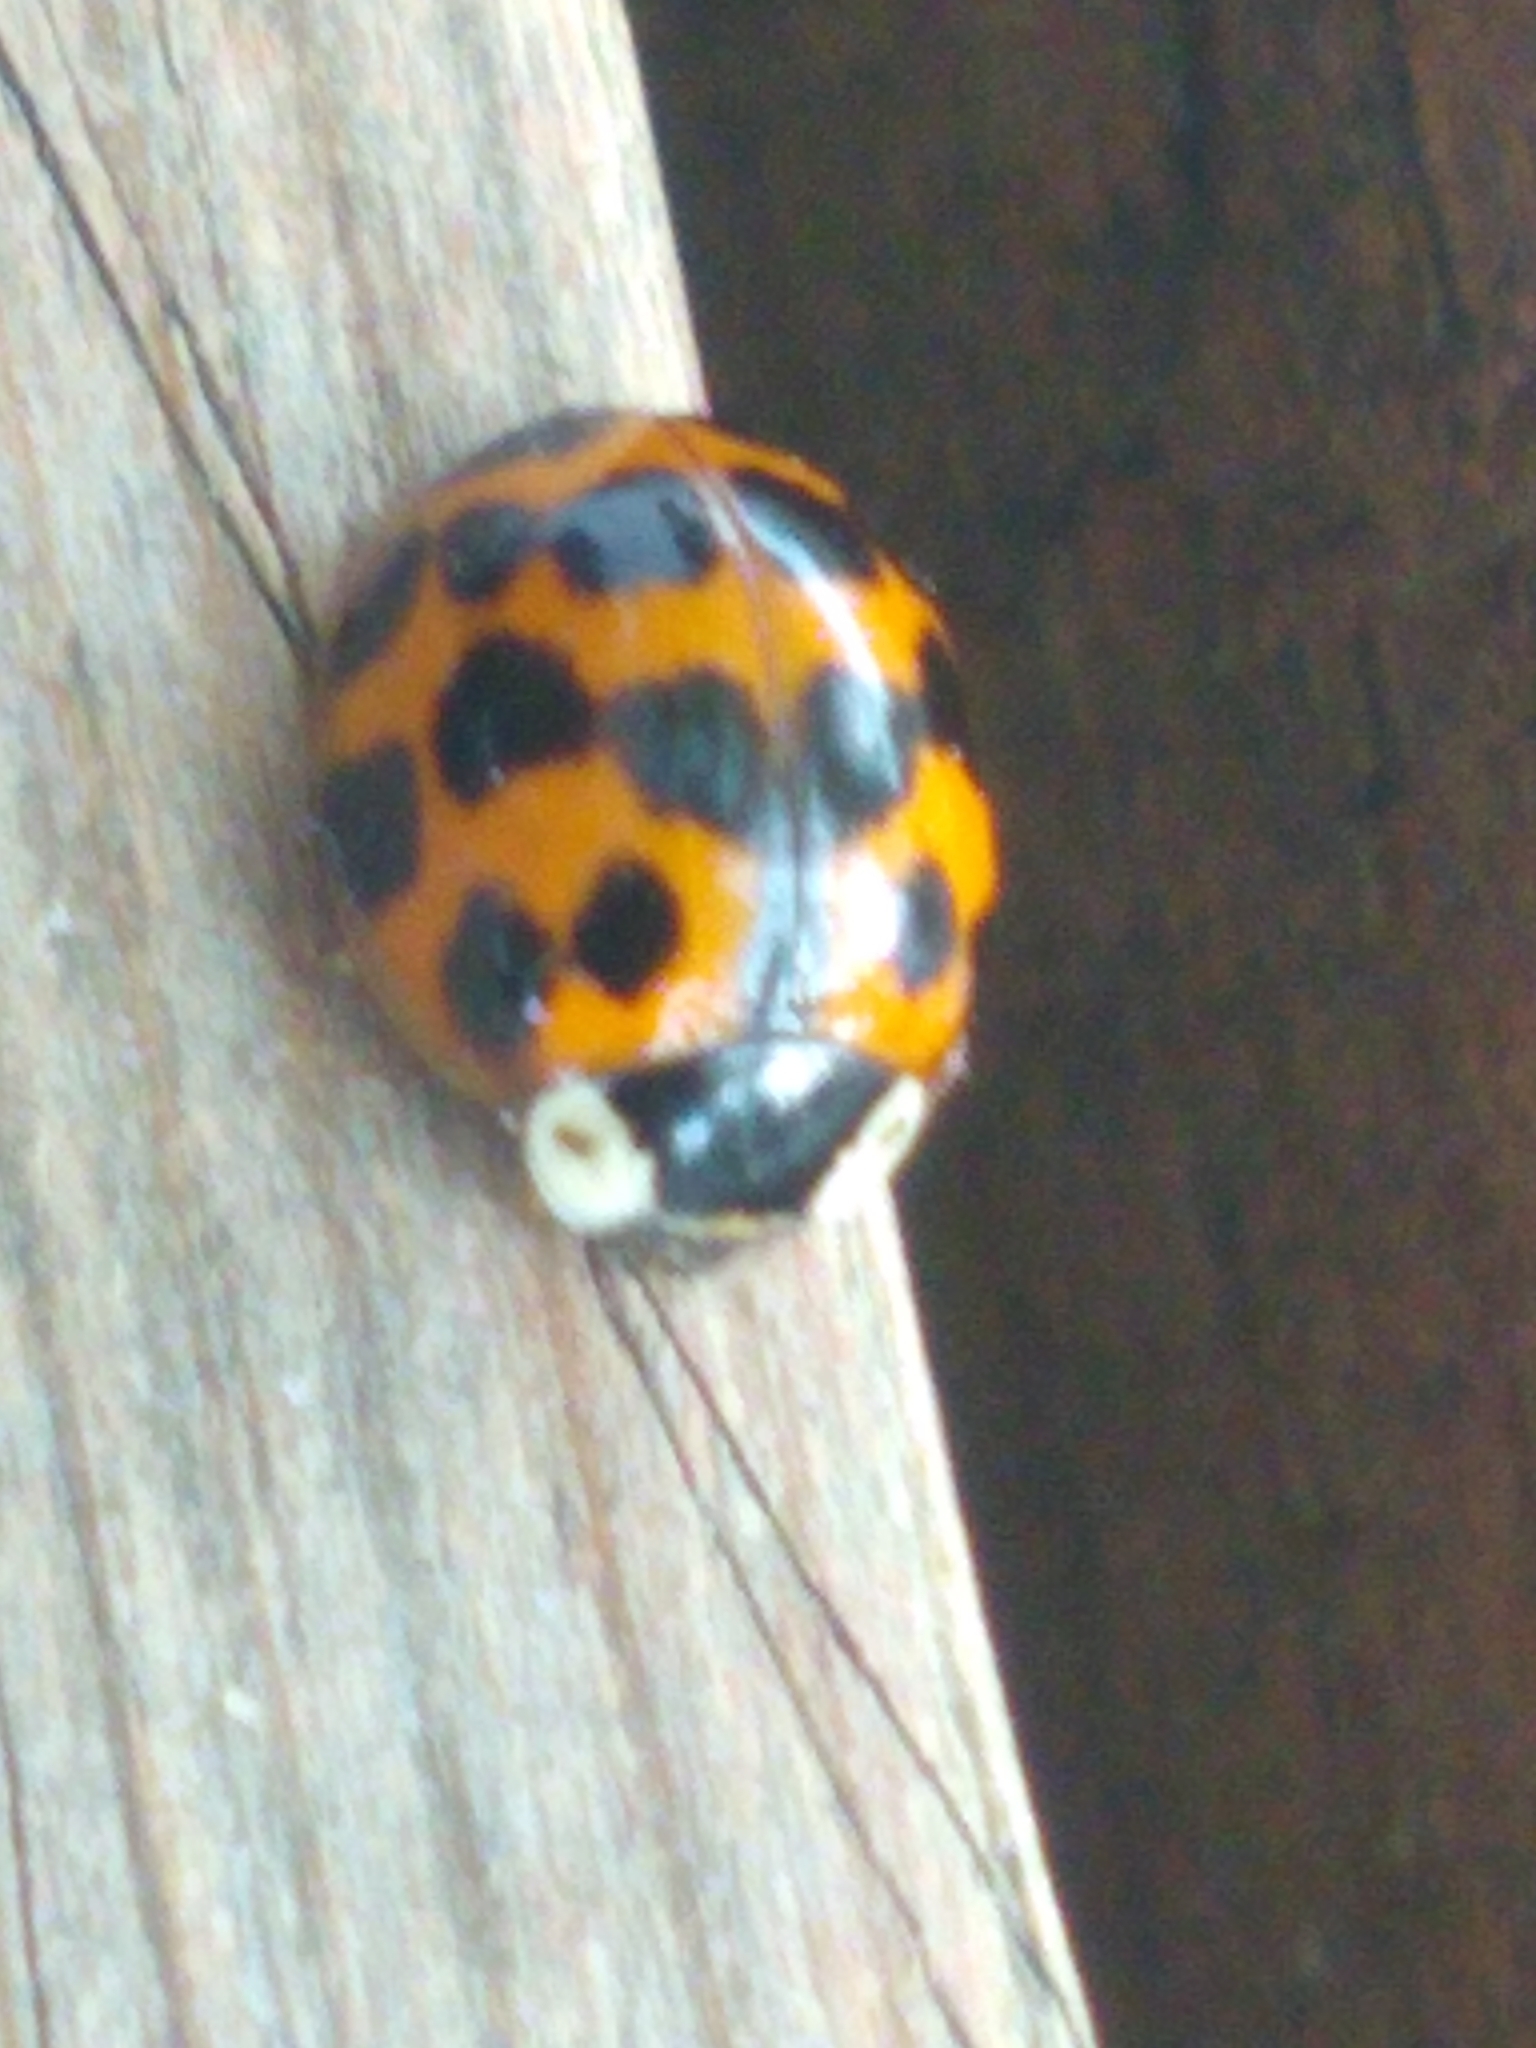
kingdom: Animalia
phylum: Arthropoda
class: Insecta
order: Coleoptera
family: Coccinellidae
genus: Harmonia
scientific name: Harmonia axyridis
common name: Harlequin ladybird
